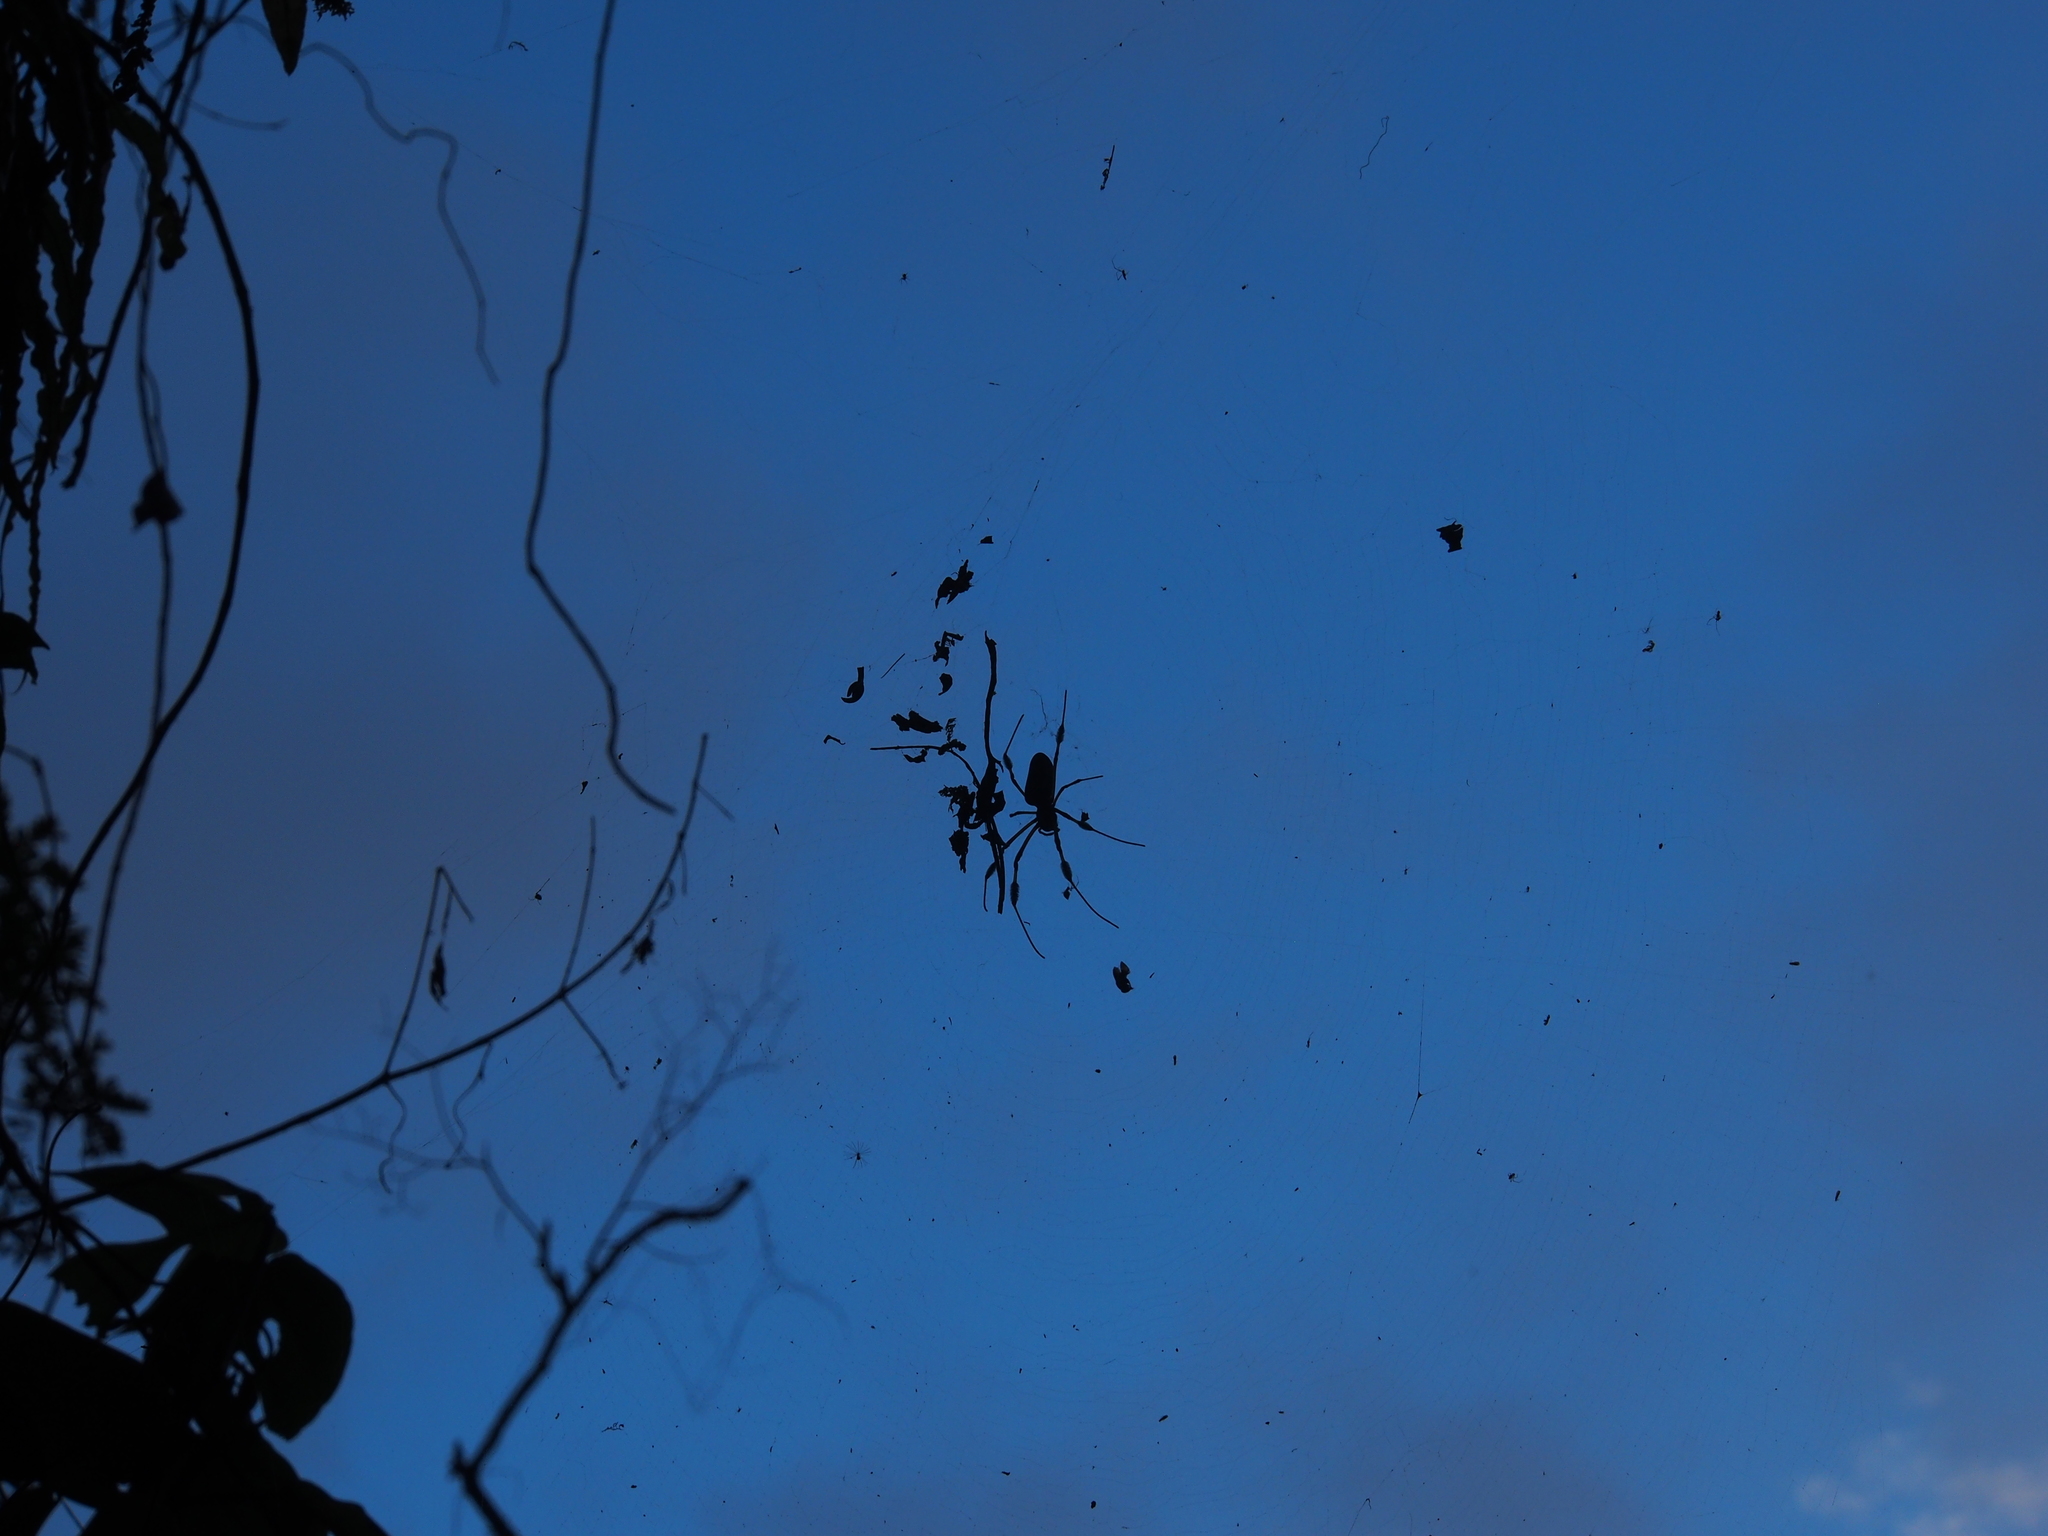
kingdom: Animalia
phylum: Arthropoda
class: Arachnida
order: Araneae
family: Araneidae
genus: Trichonephila
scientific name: Trichonephila clavipes
